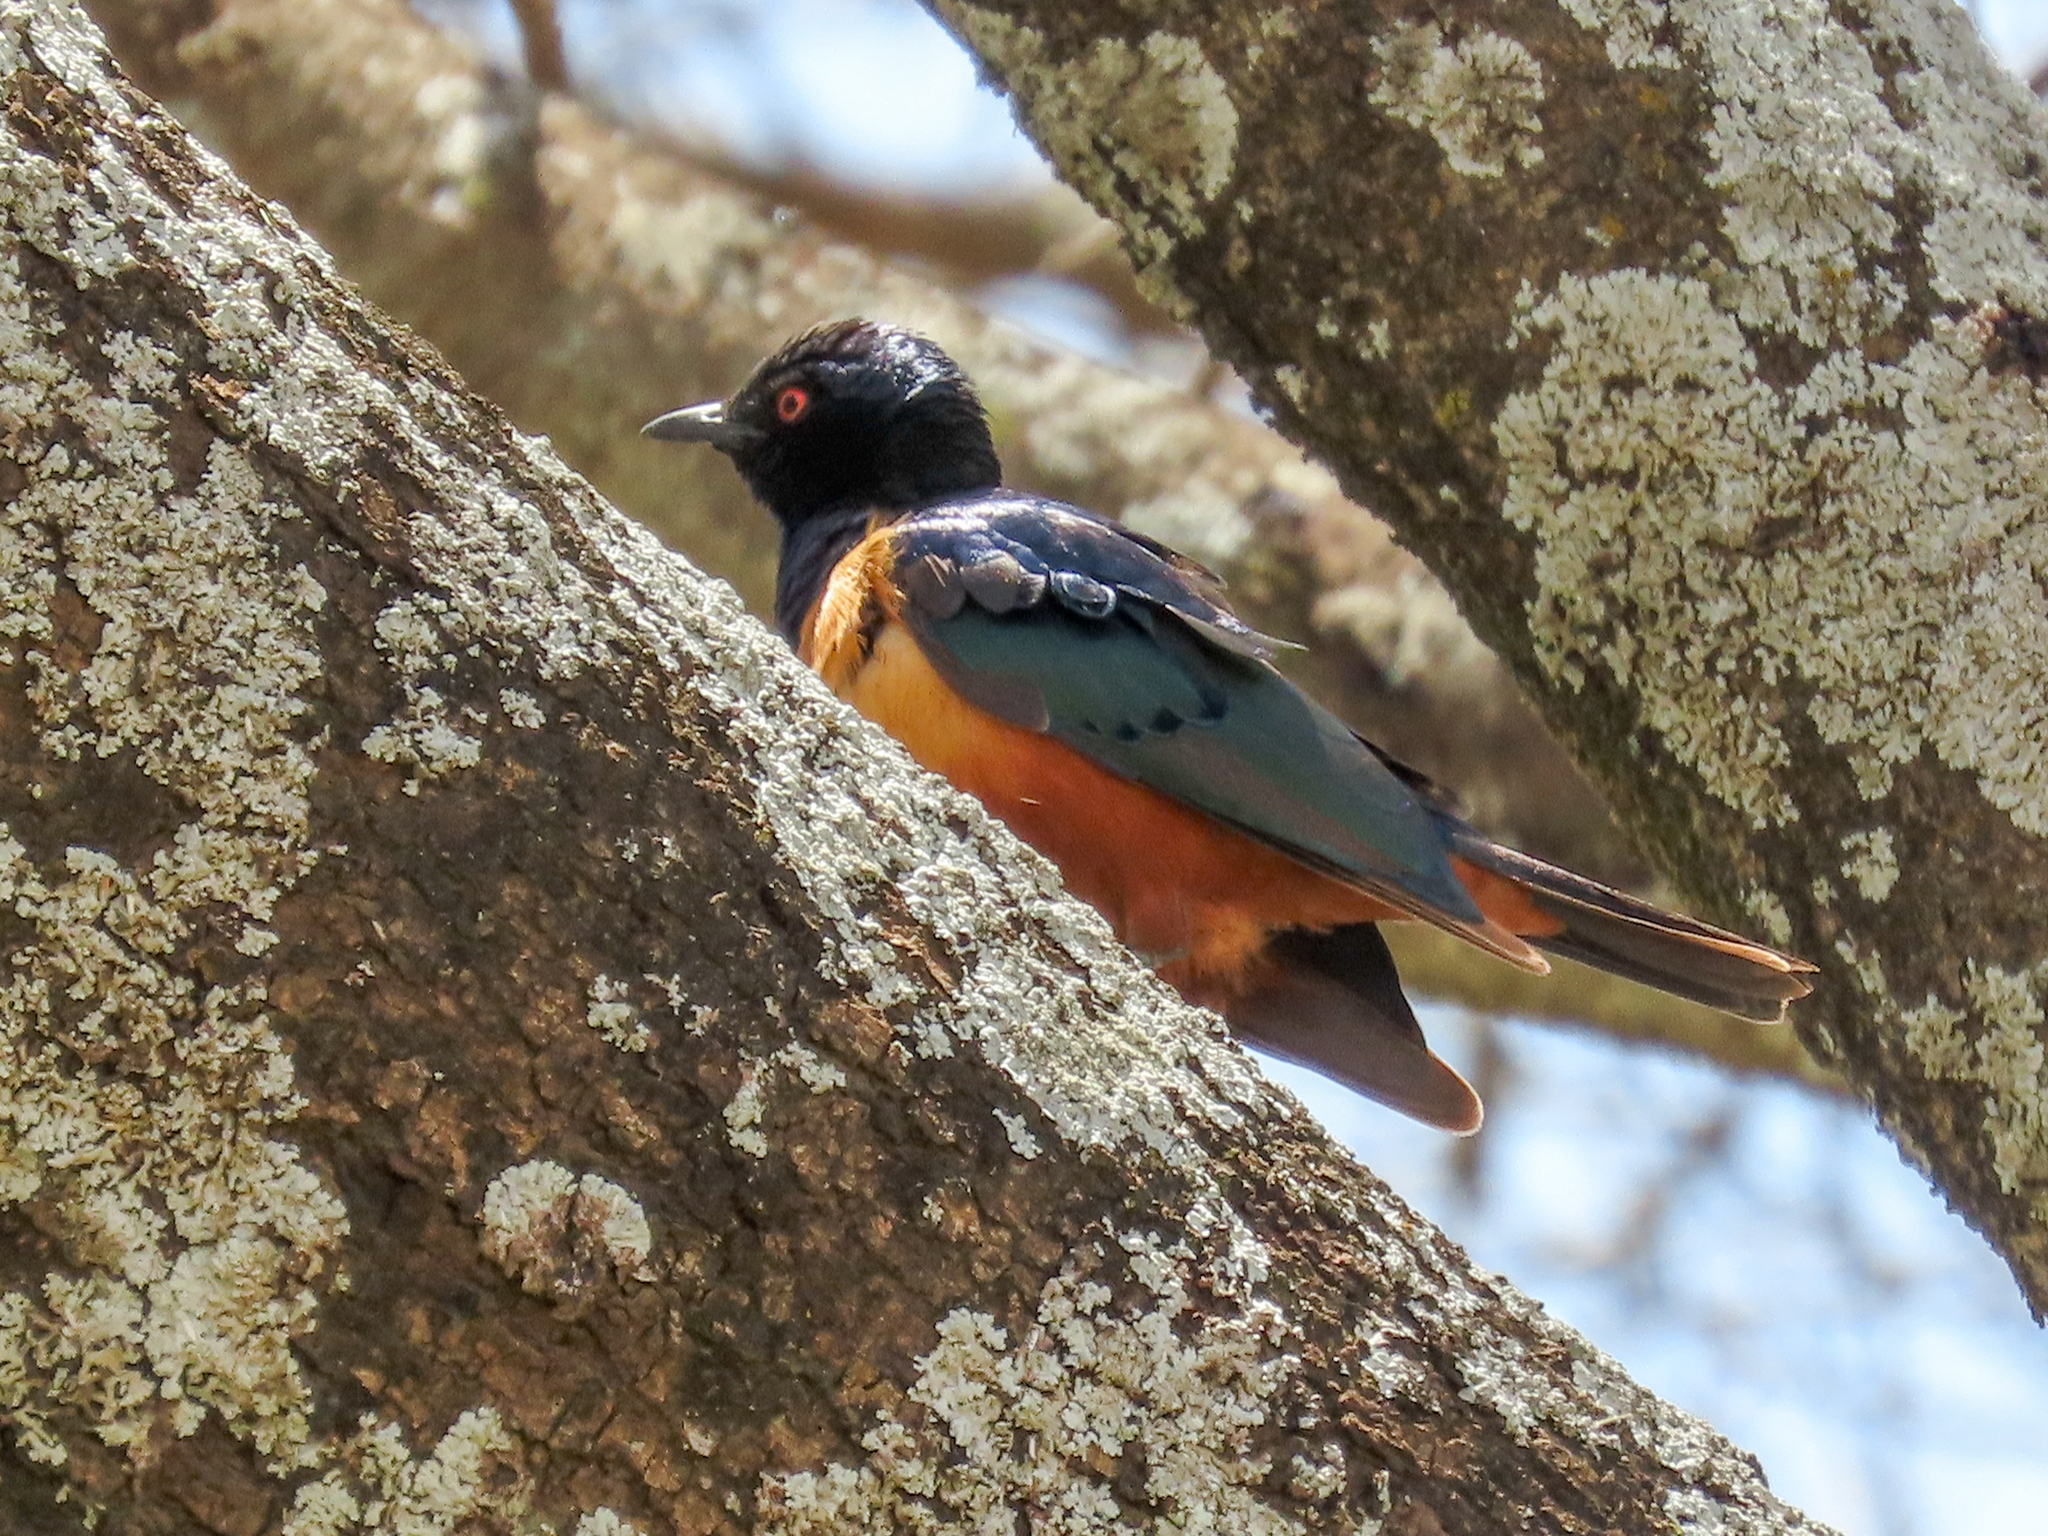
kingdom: Animalia
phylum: Chordata
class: Aves
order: Passeriformes
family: Sturnidae
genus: Lamprotornis
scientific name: Lamprotornis hildebrandti
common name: Hildebrandt's starling
